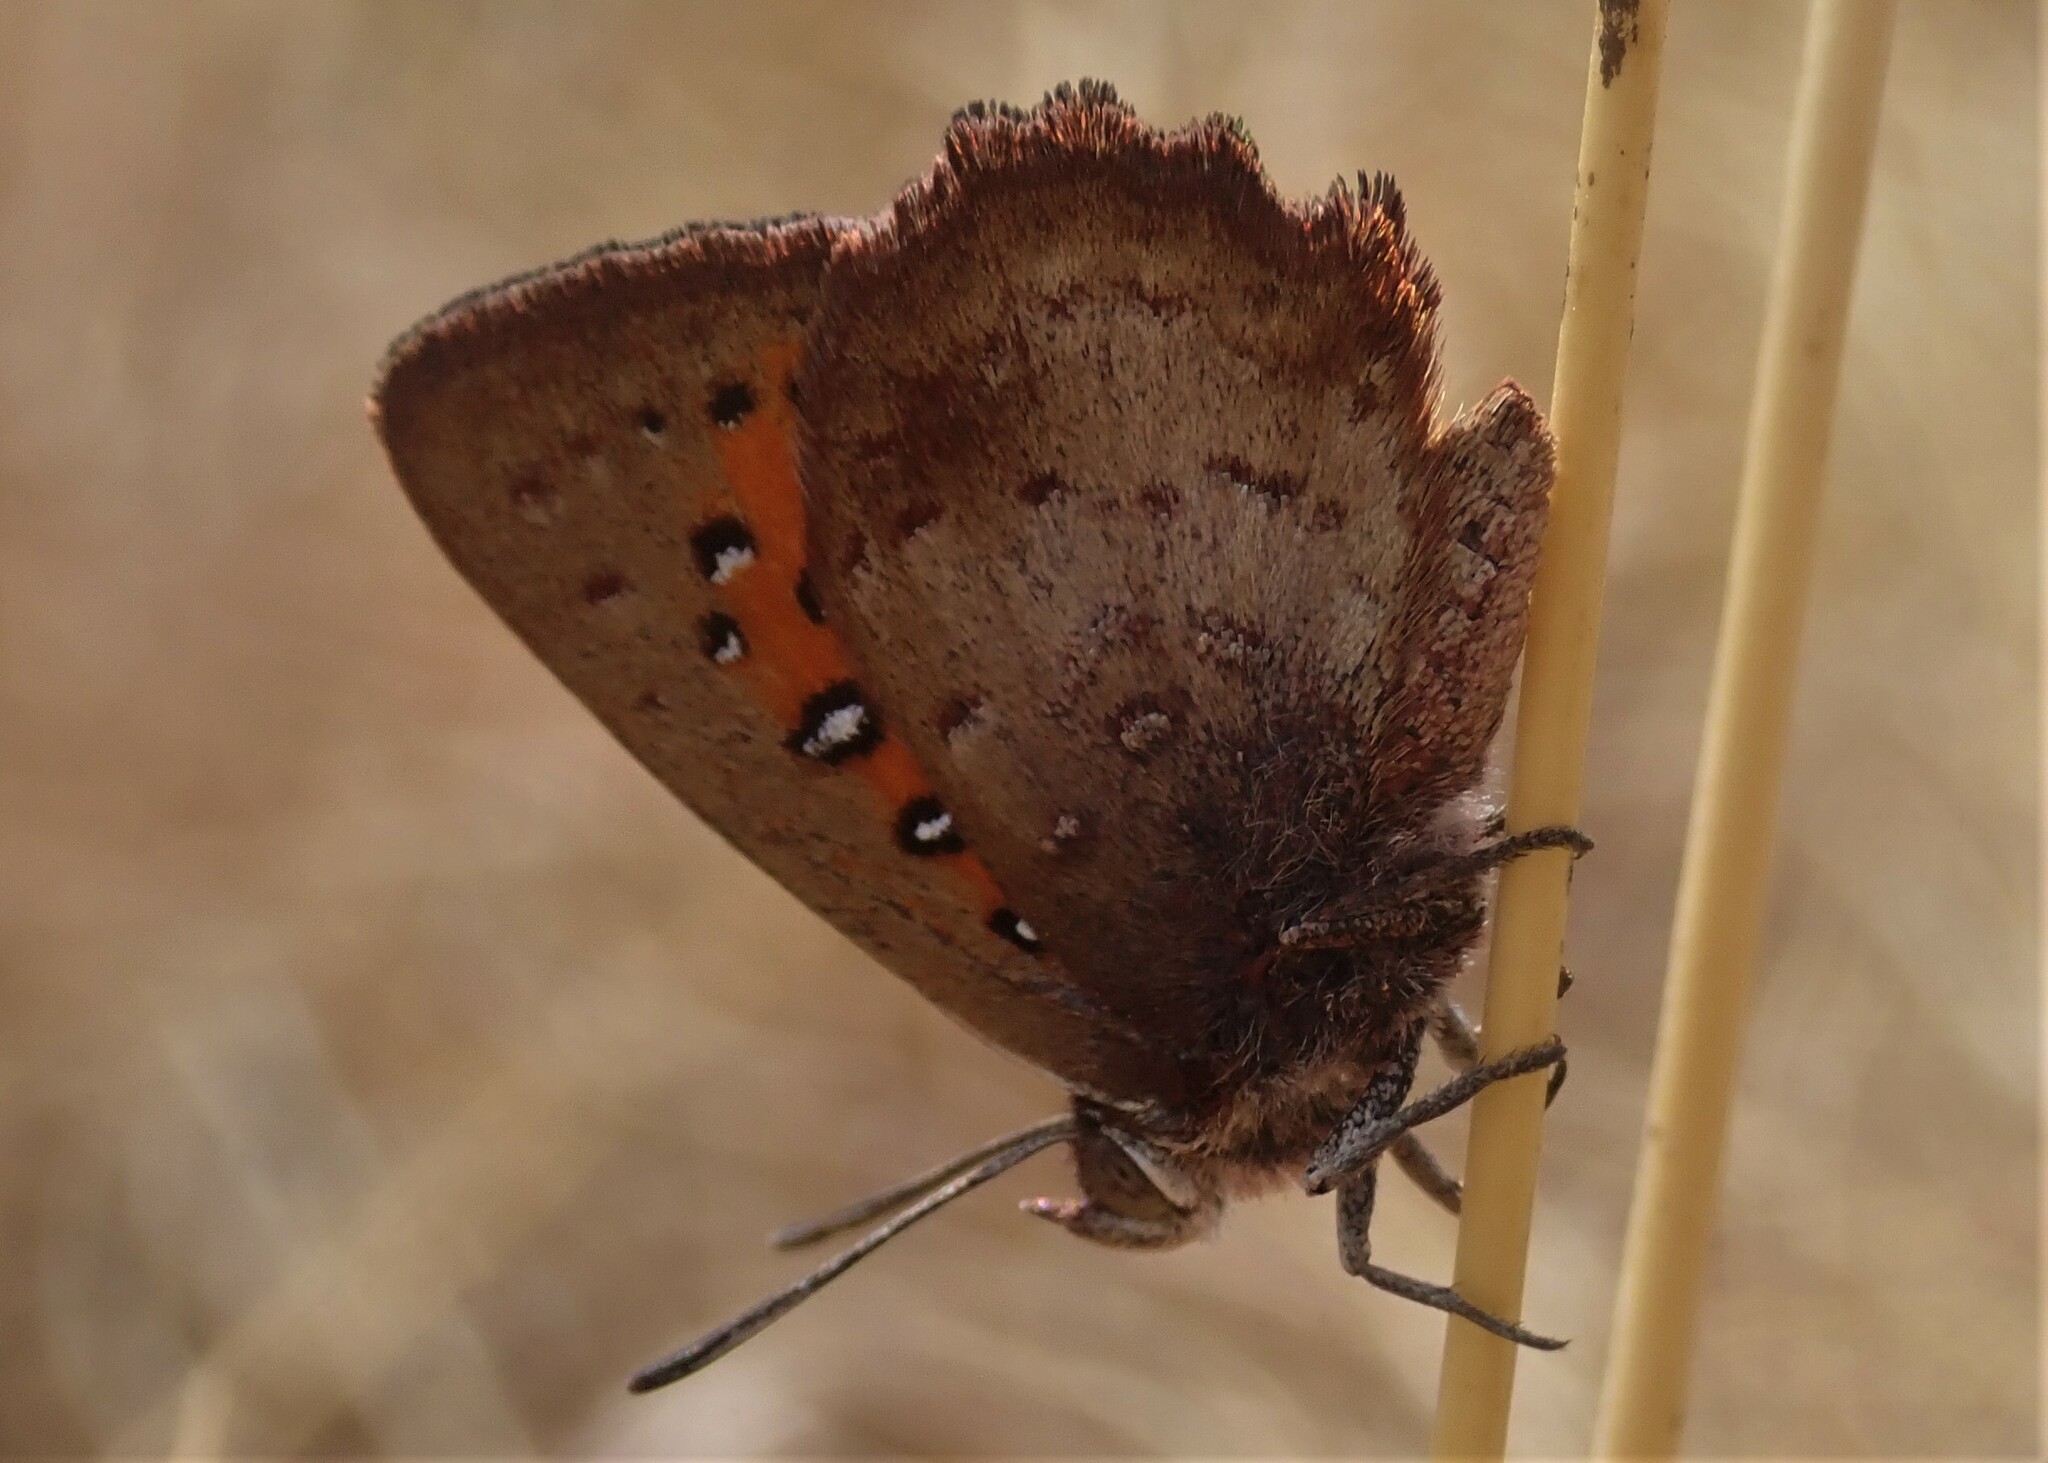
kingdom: Animalia
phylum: Arthropoda
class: Insecta
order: Lepidoptera
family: Lycaenidae
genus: Aloeides
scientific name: Aloeides taikosama
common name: Dusky copper
